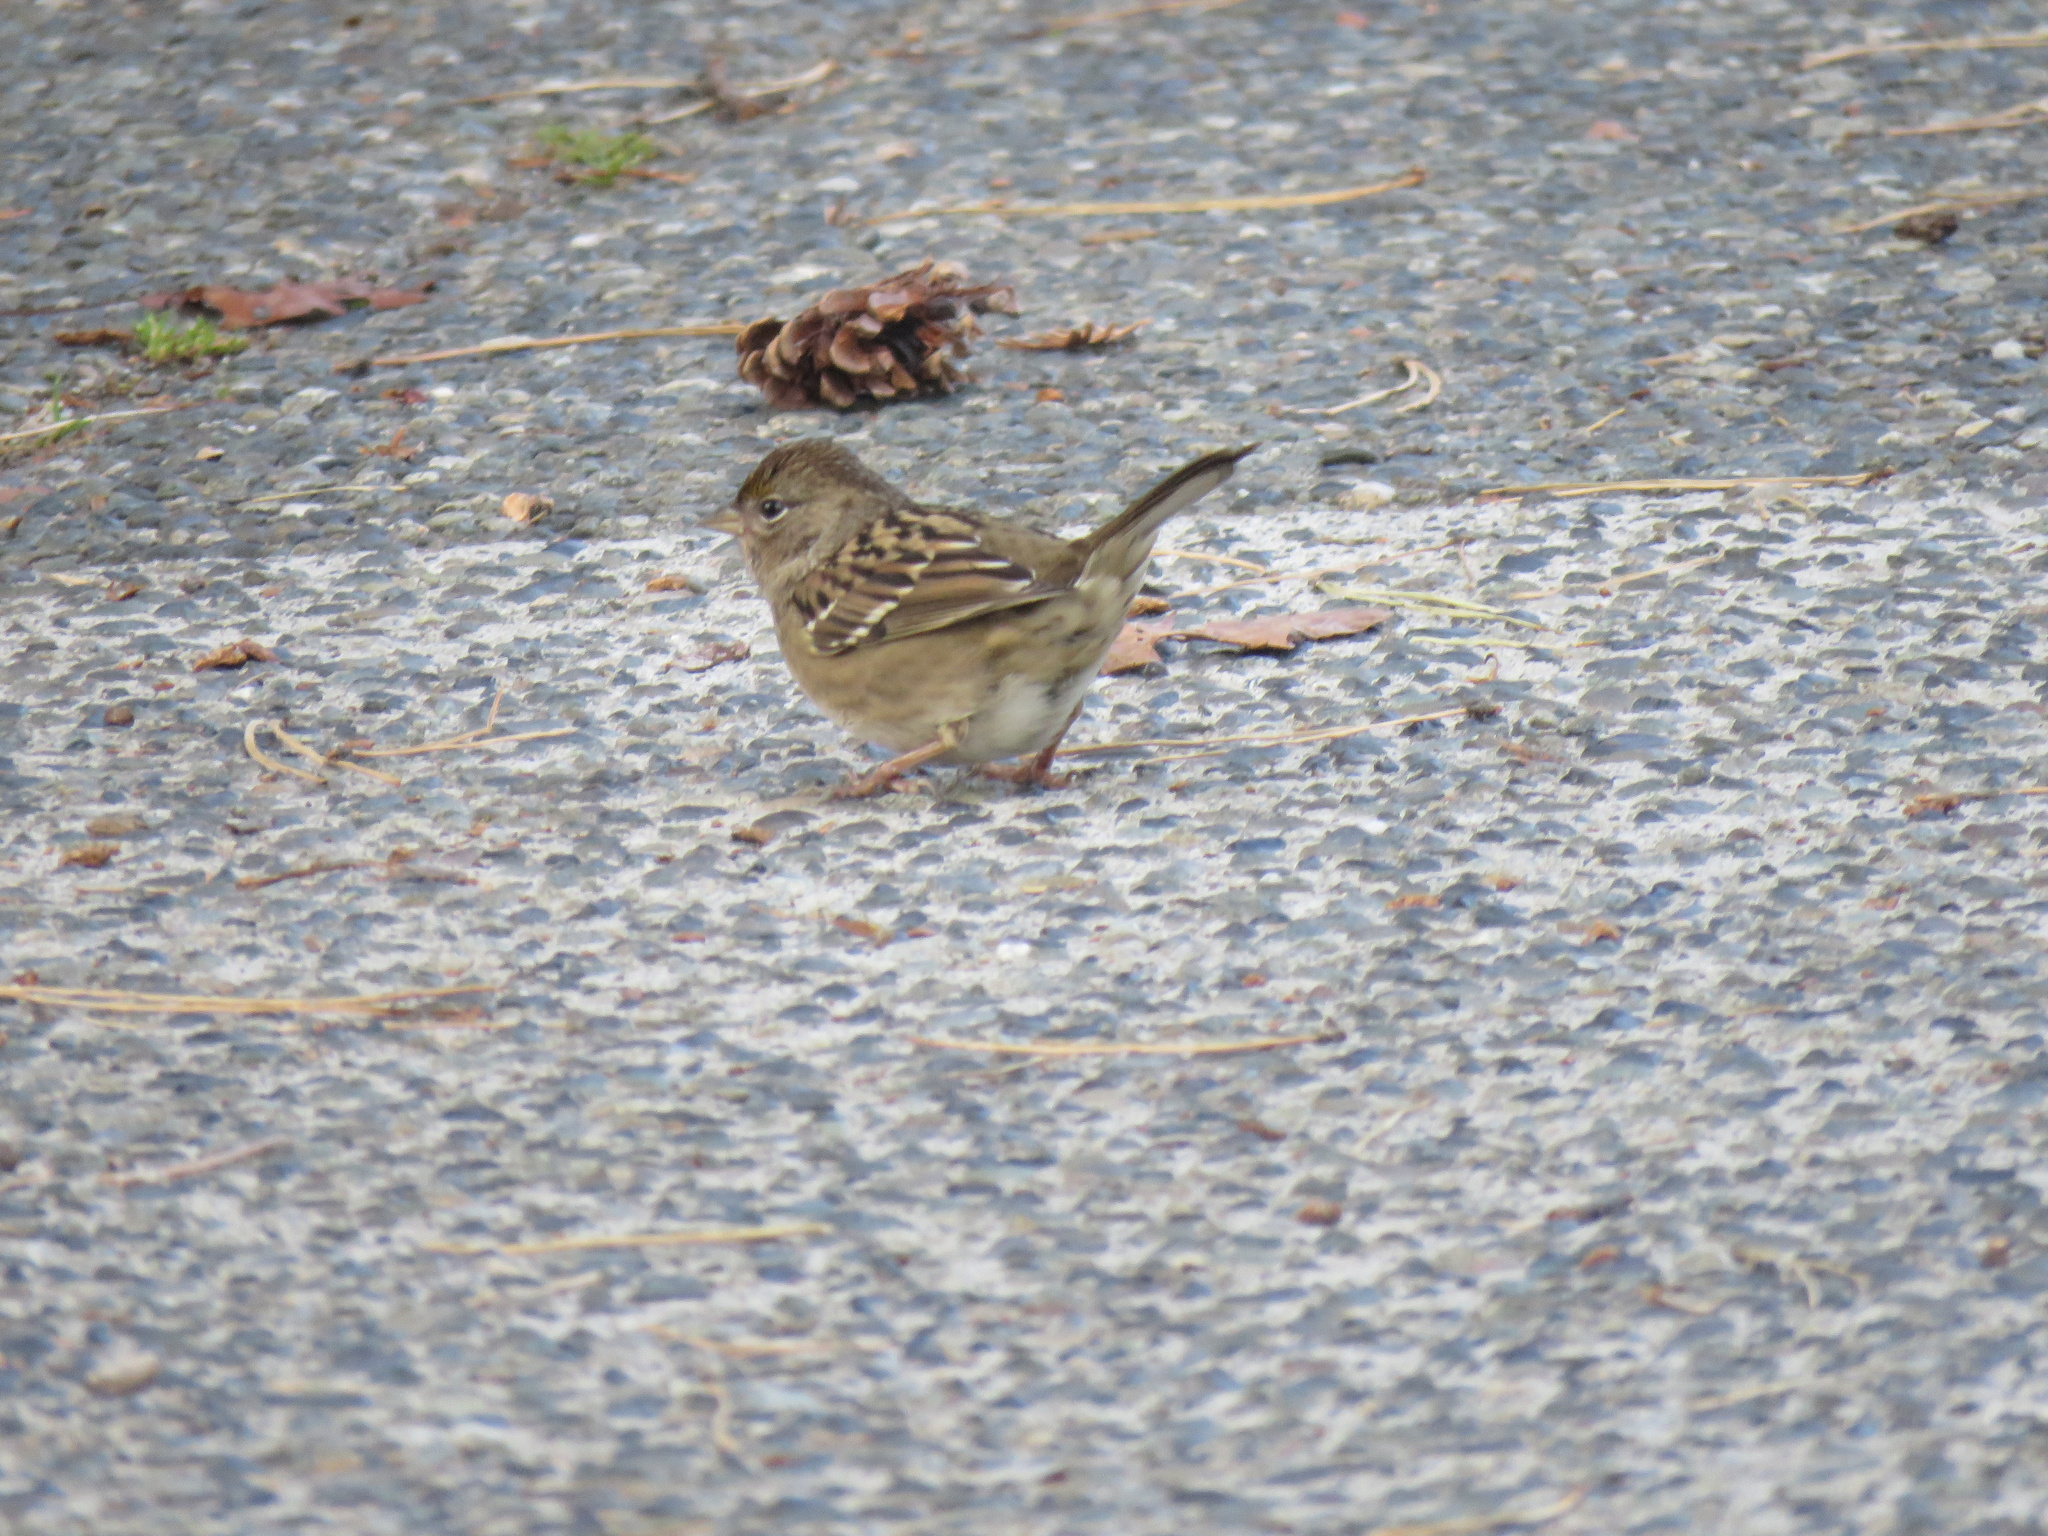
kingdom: Animalia
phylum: Chordata
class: Aves
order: Passeriformes
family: Passerellidae
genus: Zonotrichia
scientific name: Zonotrichia atricapilla
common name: Golden-crowned sparrow
